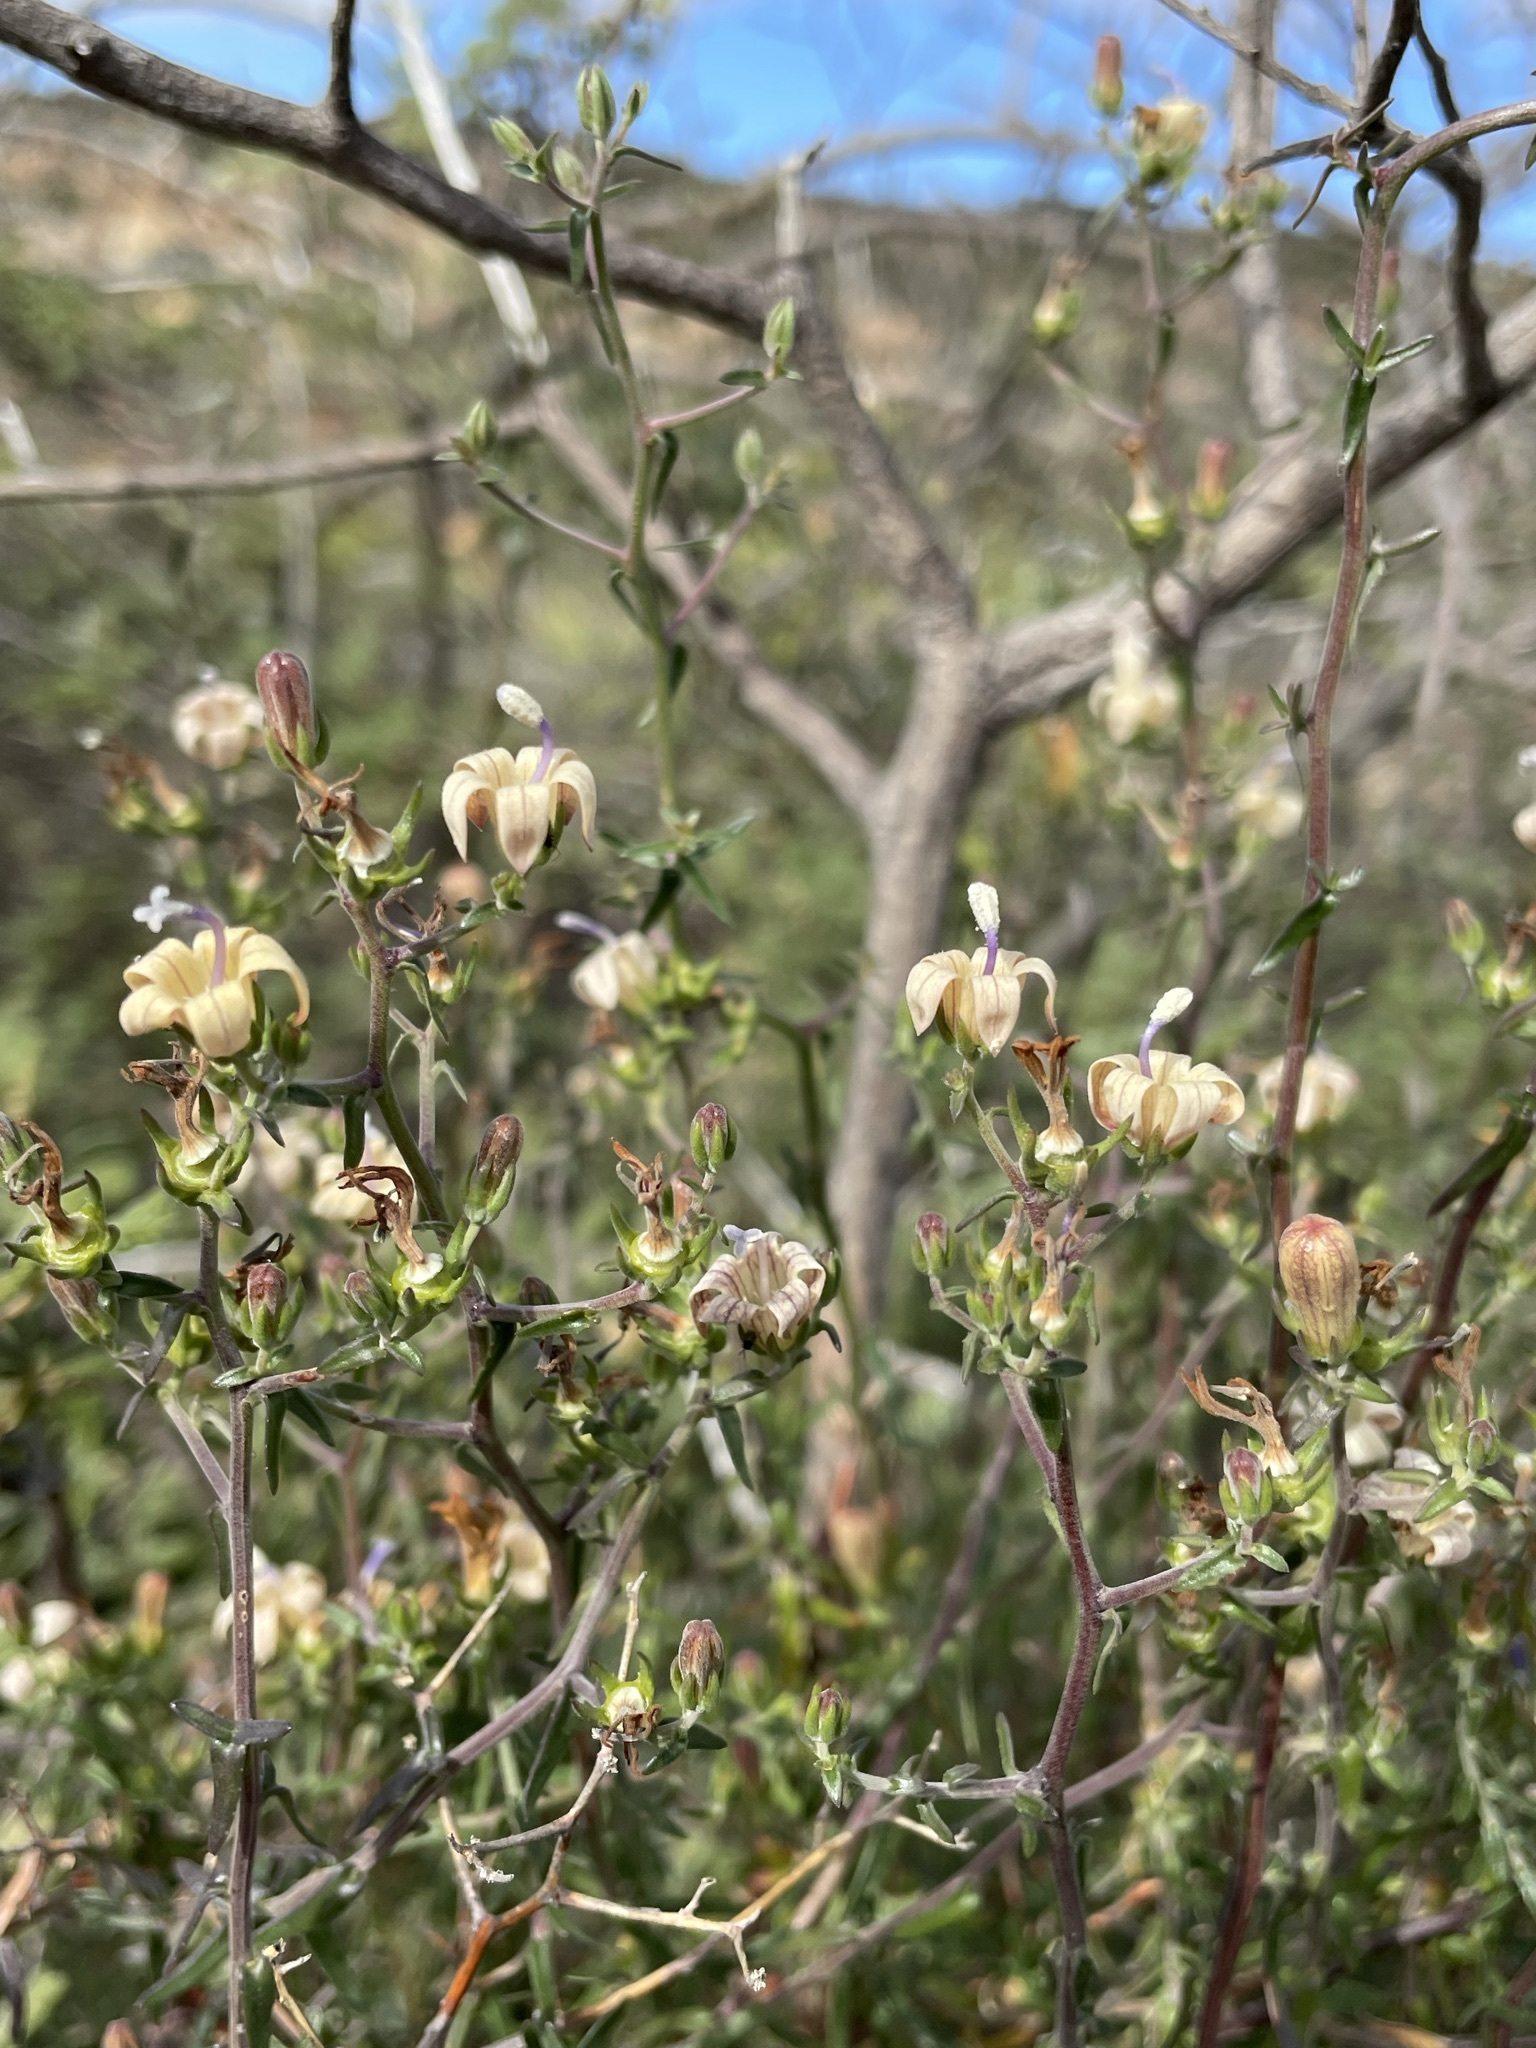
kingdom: Plantae
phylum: Tracheophyta
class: Magnoliopsida
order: Asterales
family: Campanulaceae
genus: Wahlenbergia
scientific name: Wahlenbergia thunbergiana
